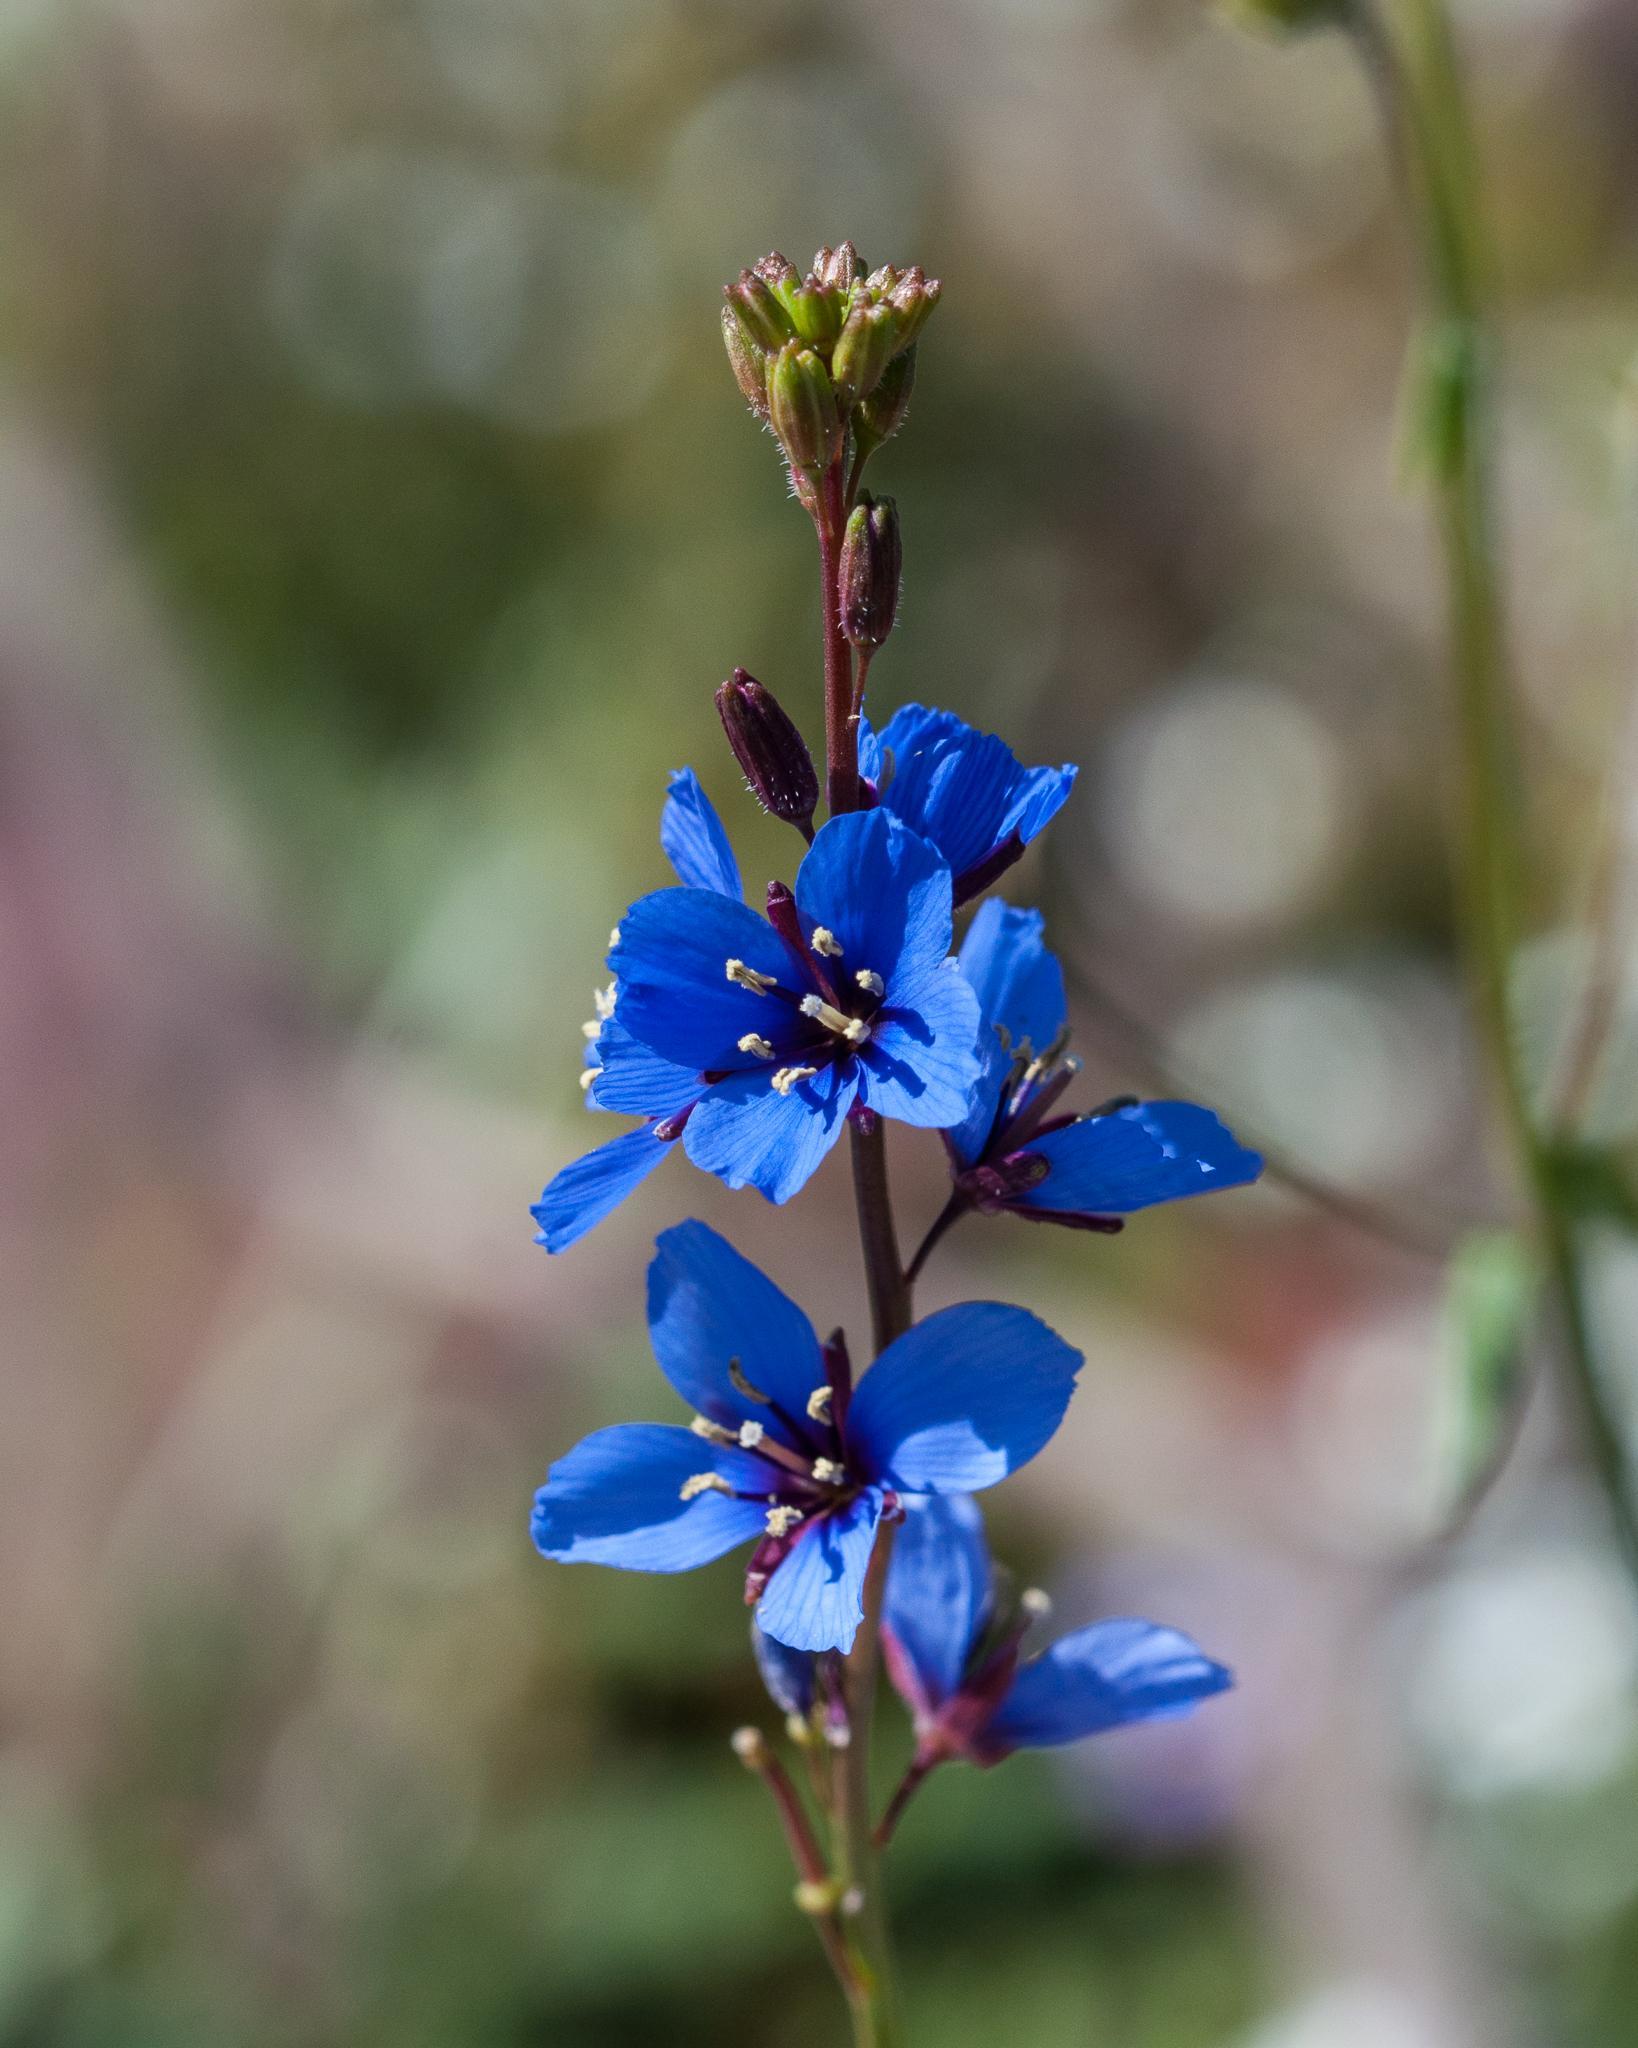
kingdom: Plantae
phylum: Tracheophyta
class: Magnoliopsida
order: Brassicales
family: Brassicaceae
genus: Heliophila
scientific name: Heliophila acuminata
